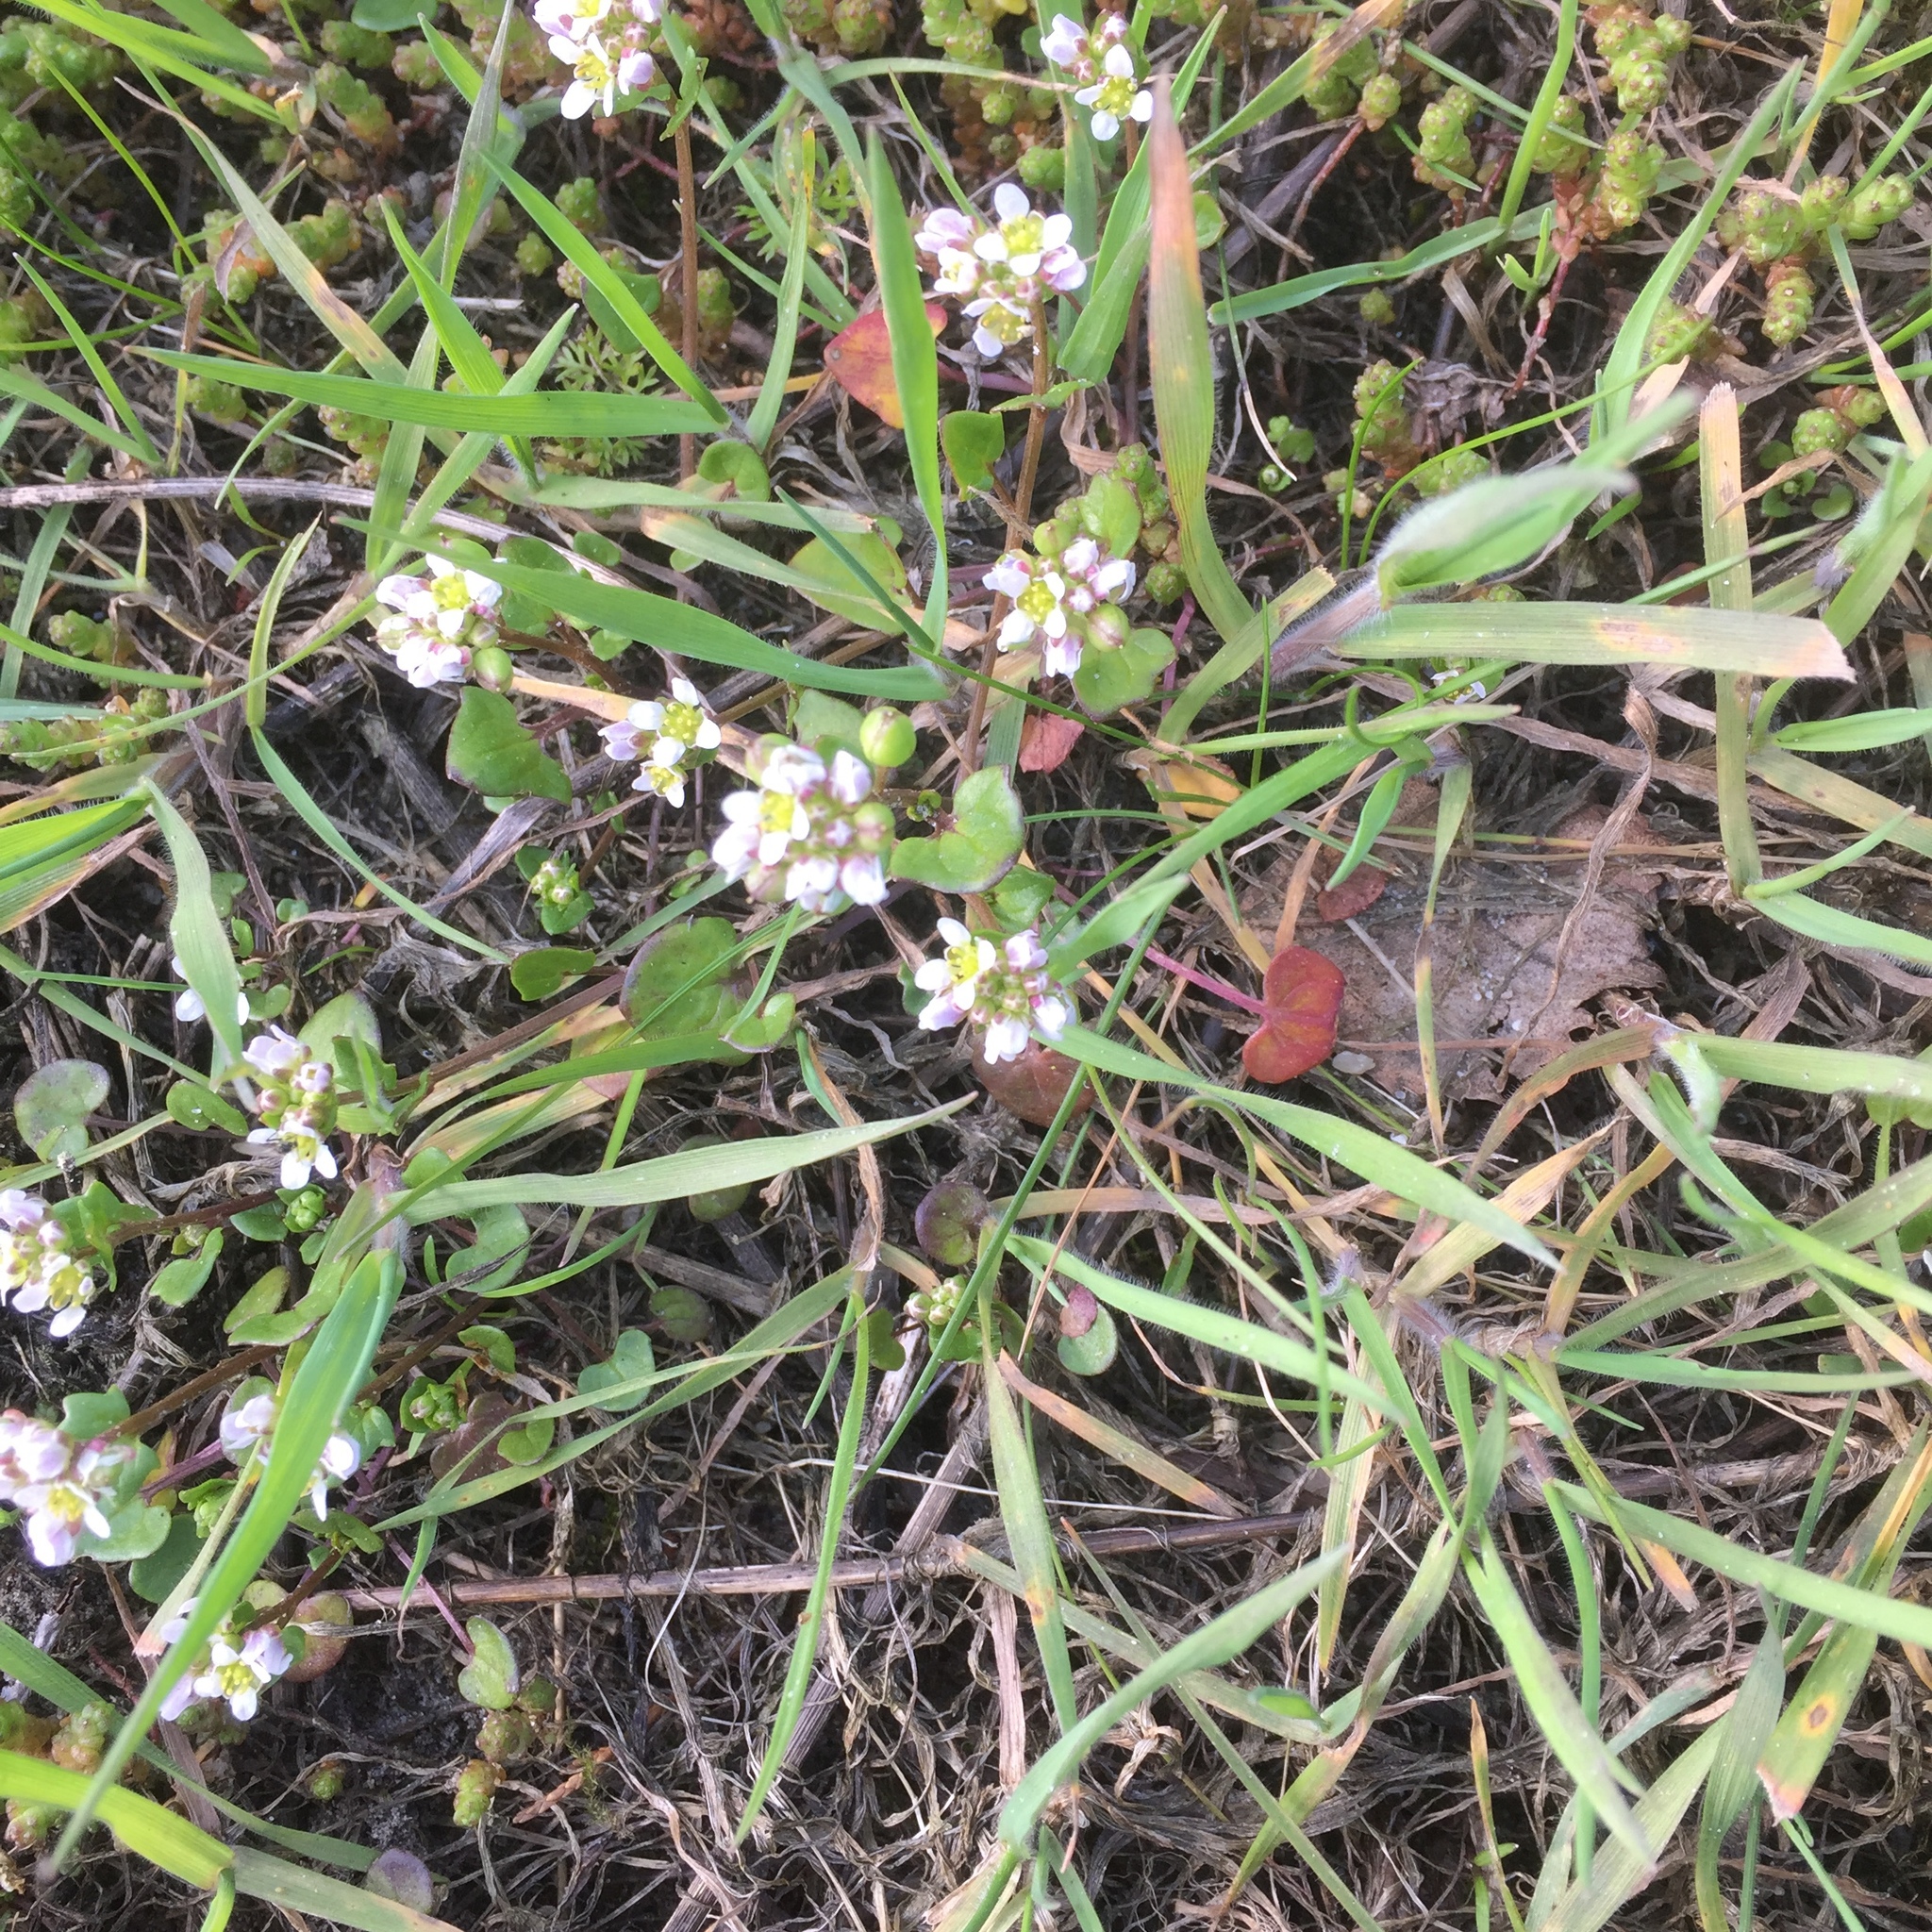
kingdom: Plantae
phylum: Tracheophyta
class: Magnoliopsida
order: Brassicales
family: Brassicaceae
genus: Cochlearia
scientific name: Cochlearia danica
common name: Early scurvygrass
